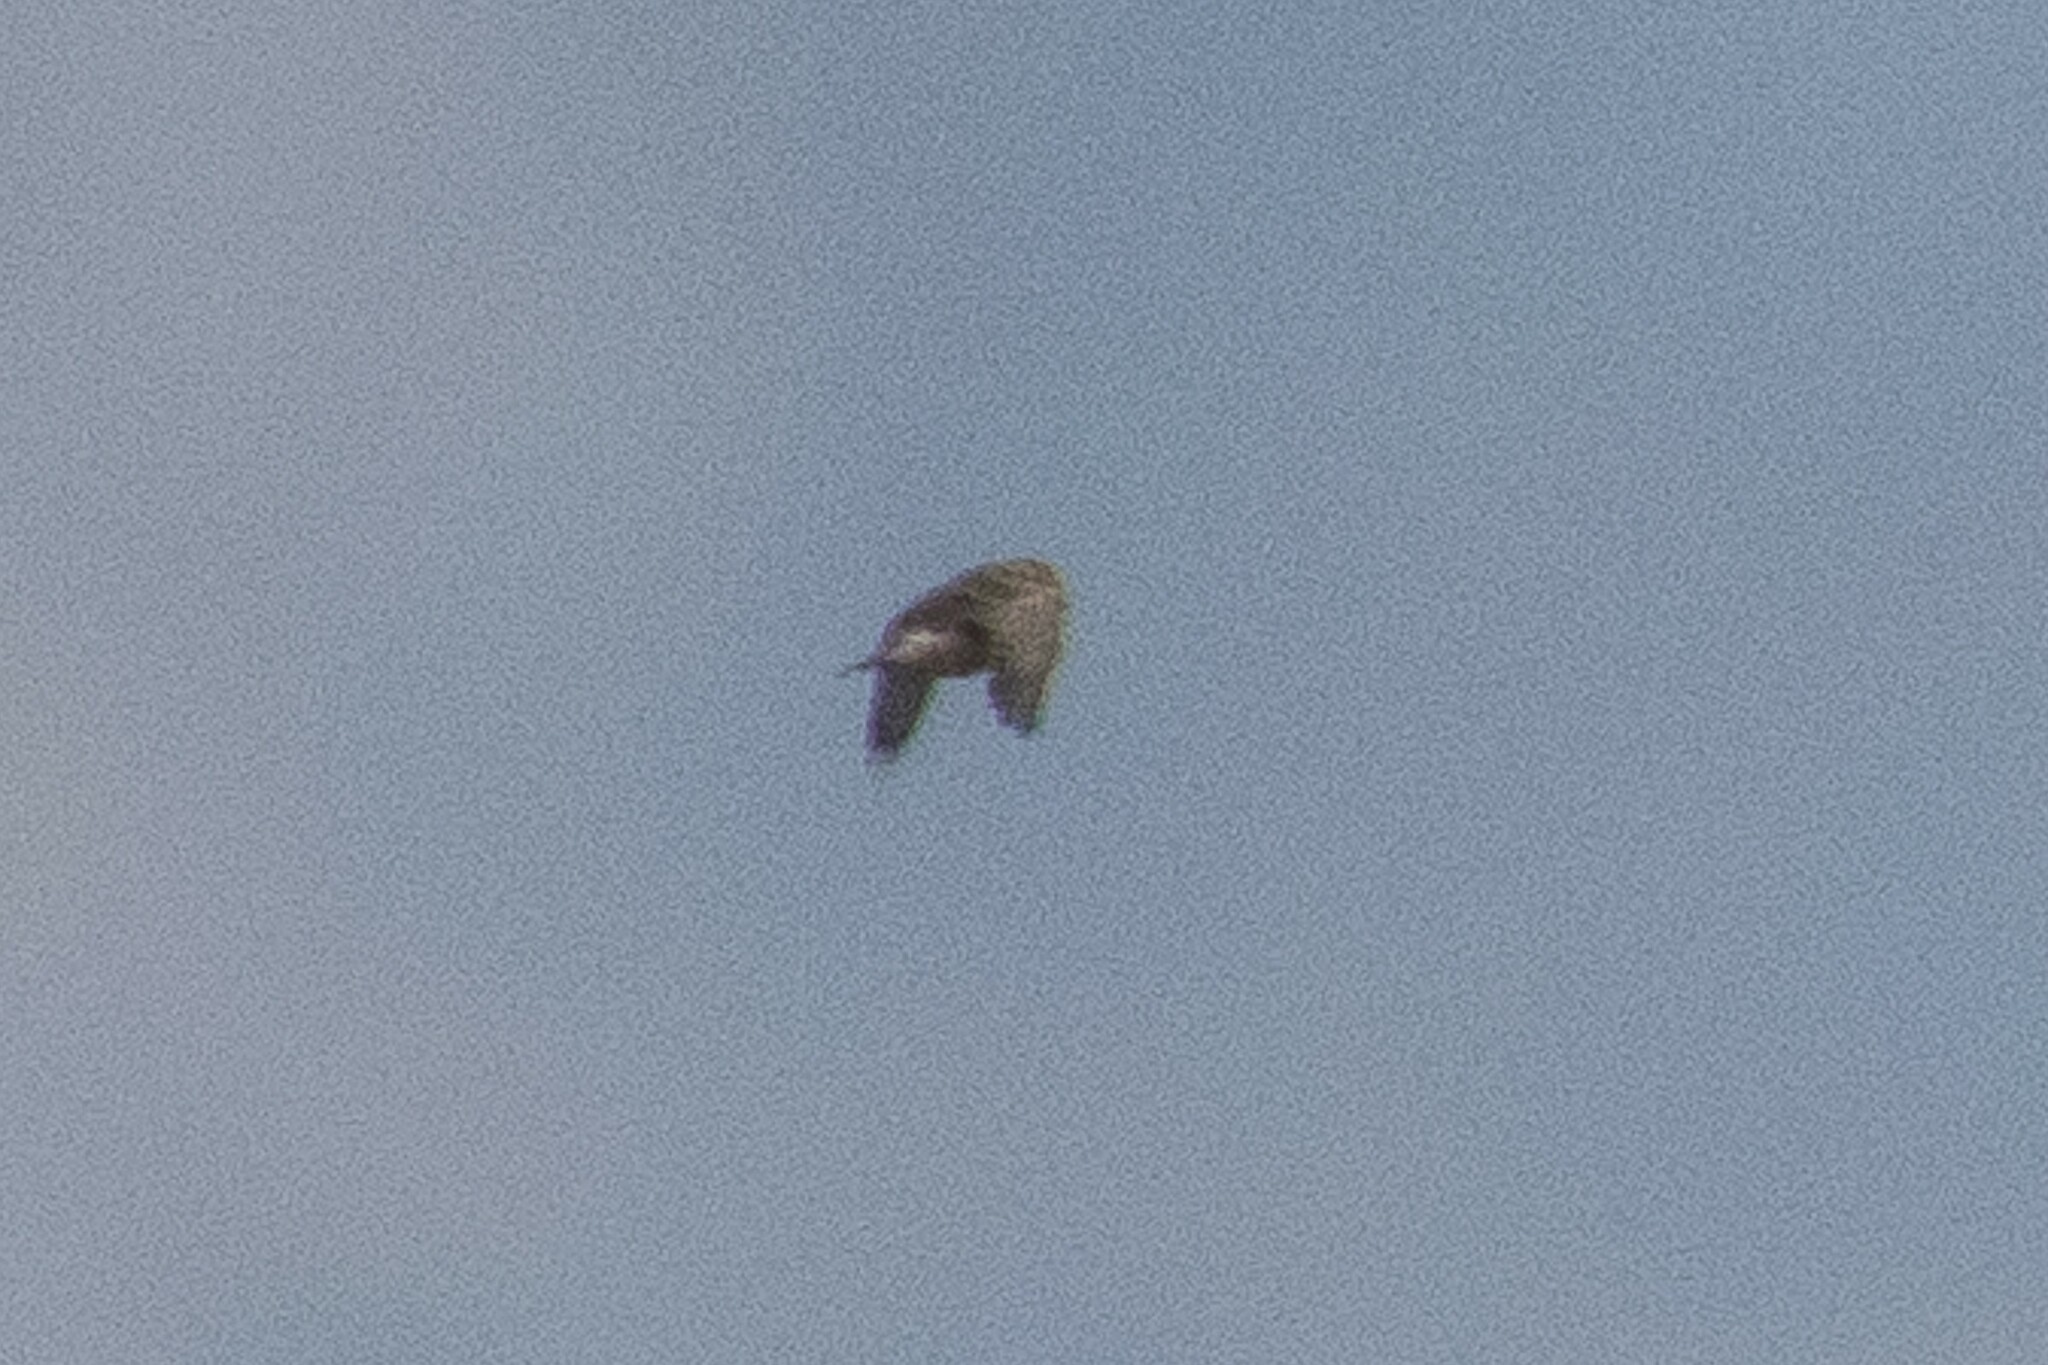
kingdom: Animalia
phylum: Chordata
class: Aves
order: Passeriformes
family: Calcariidae
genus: Rhynchophanes
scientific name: Rhynchophanes mccownii
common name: Mccown's longspur
